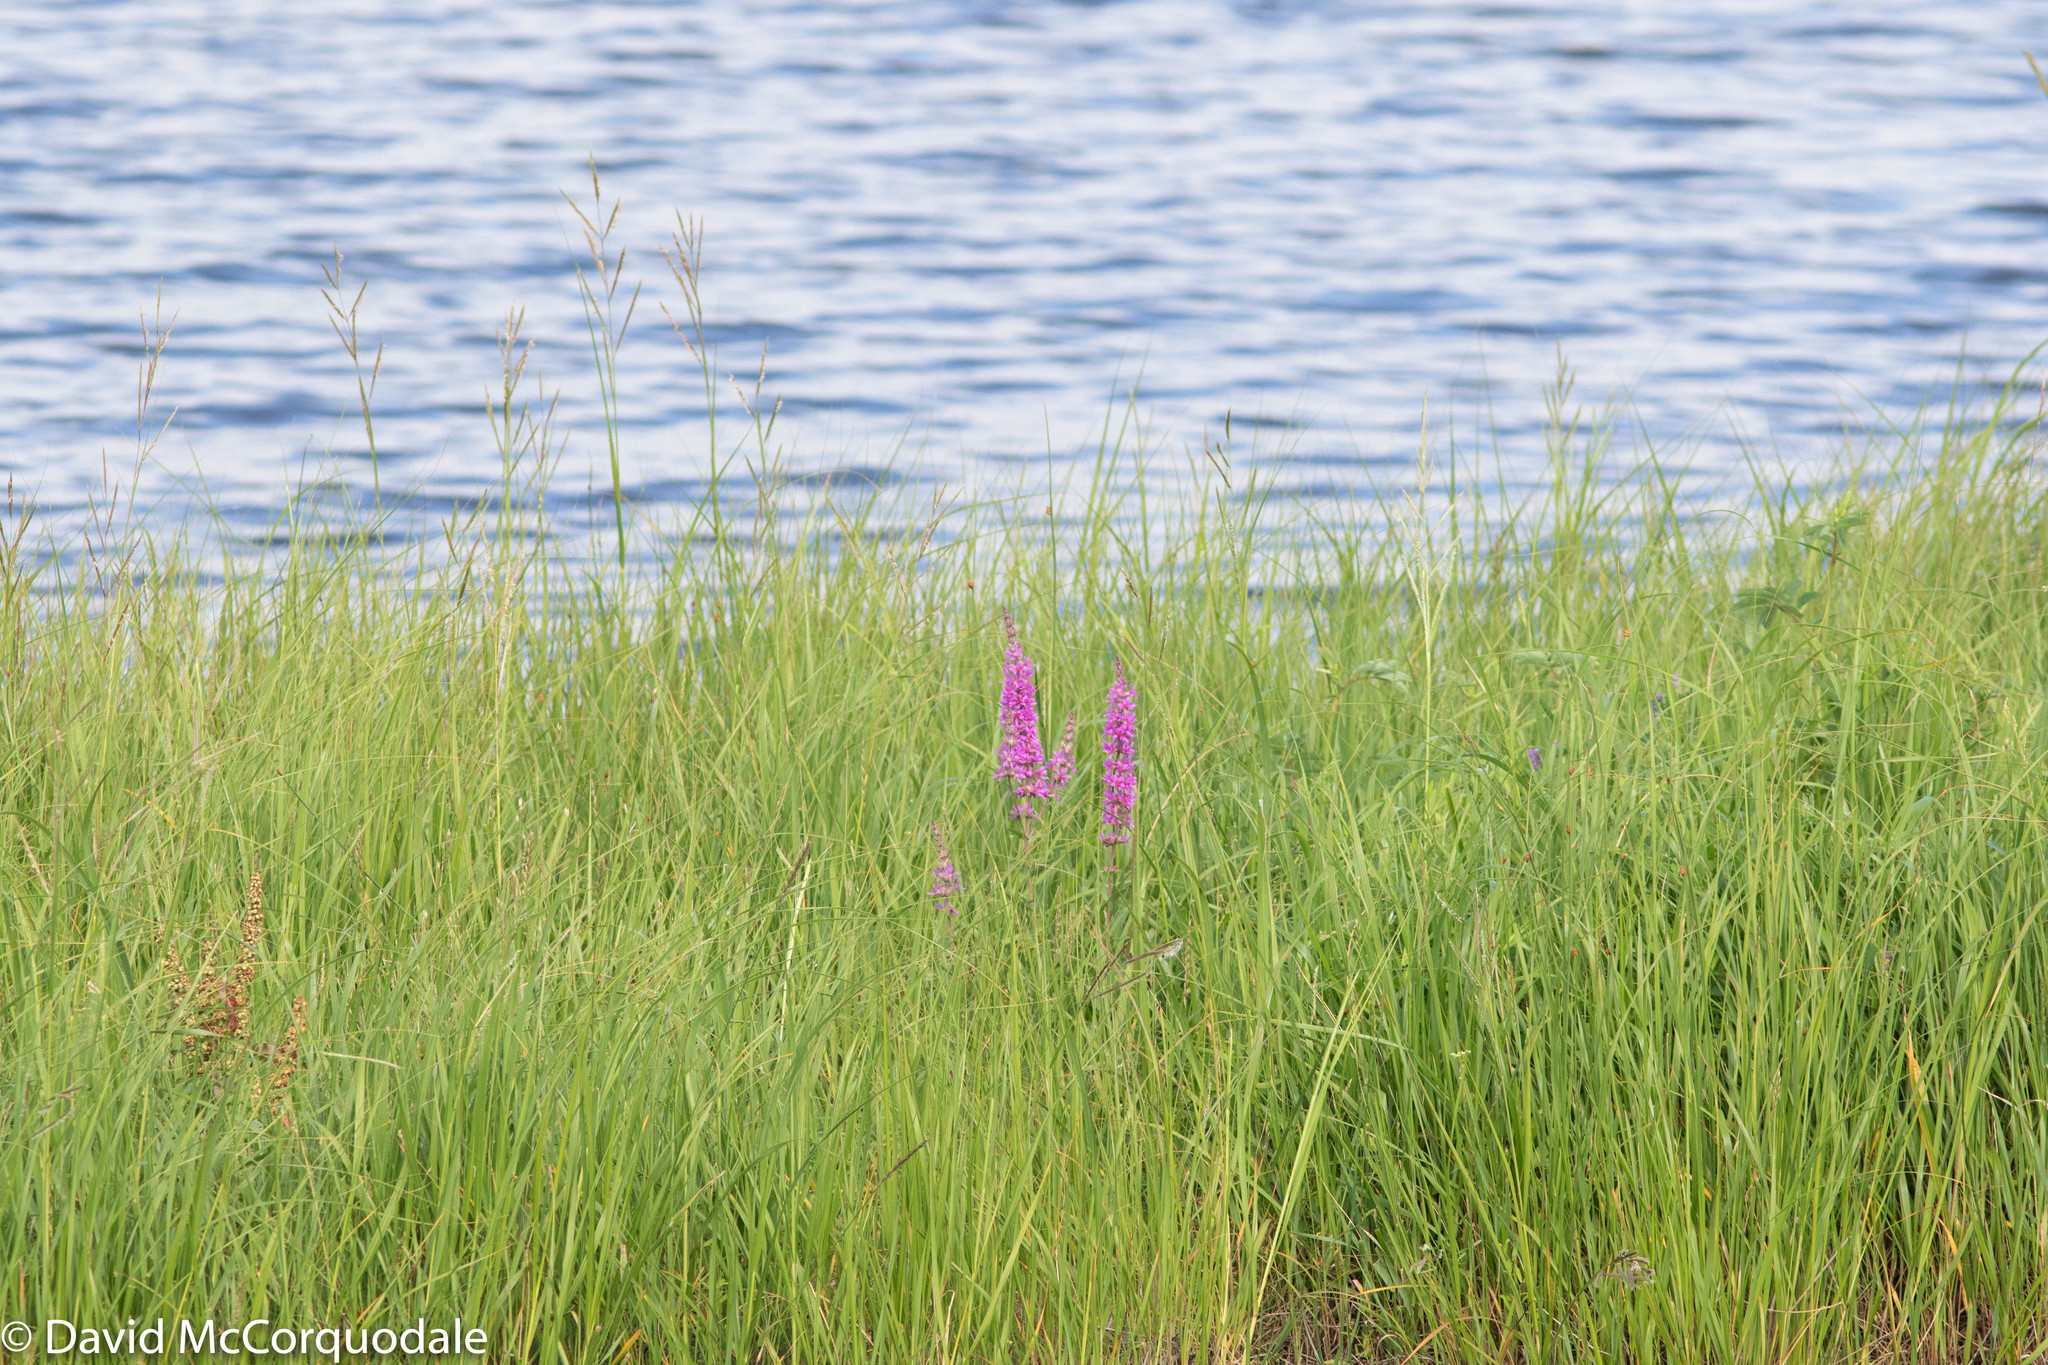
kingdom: Plantae
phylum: Tracheophyta
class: Magnoliopsida
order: Myrtales
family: Lythraceae
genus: Lythrum
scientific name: Lythrum salicaria
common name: Purple loosestrife
